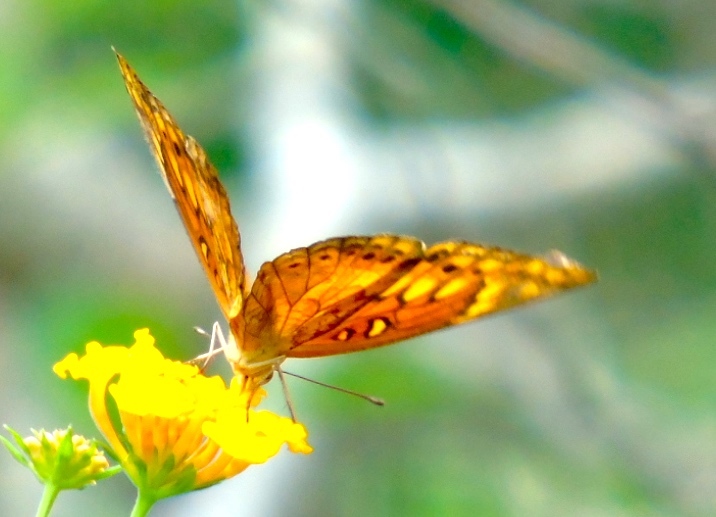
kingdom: Animalia
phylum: Arthropoda
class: Insecta
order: Lepidoptera
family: Nymphalidae
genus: Euptoieta
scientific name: Euptoieta claudia
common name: Variegated fritillary
